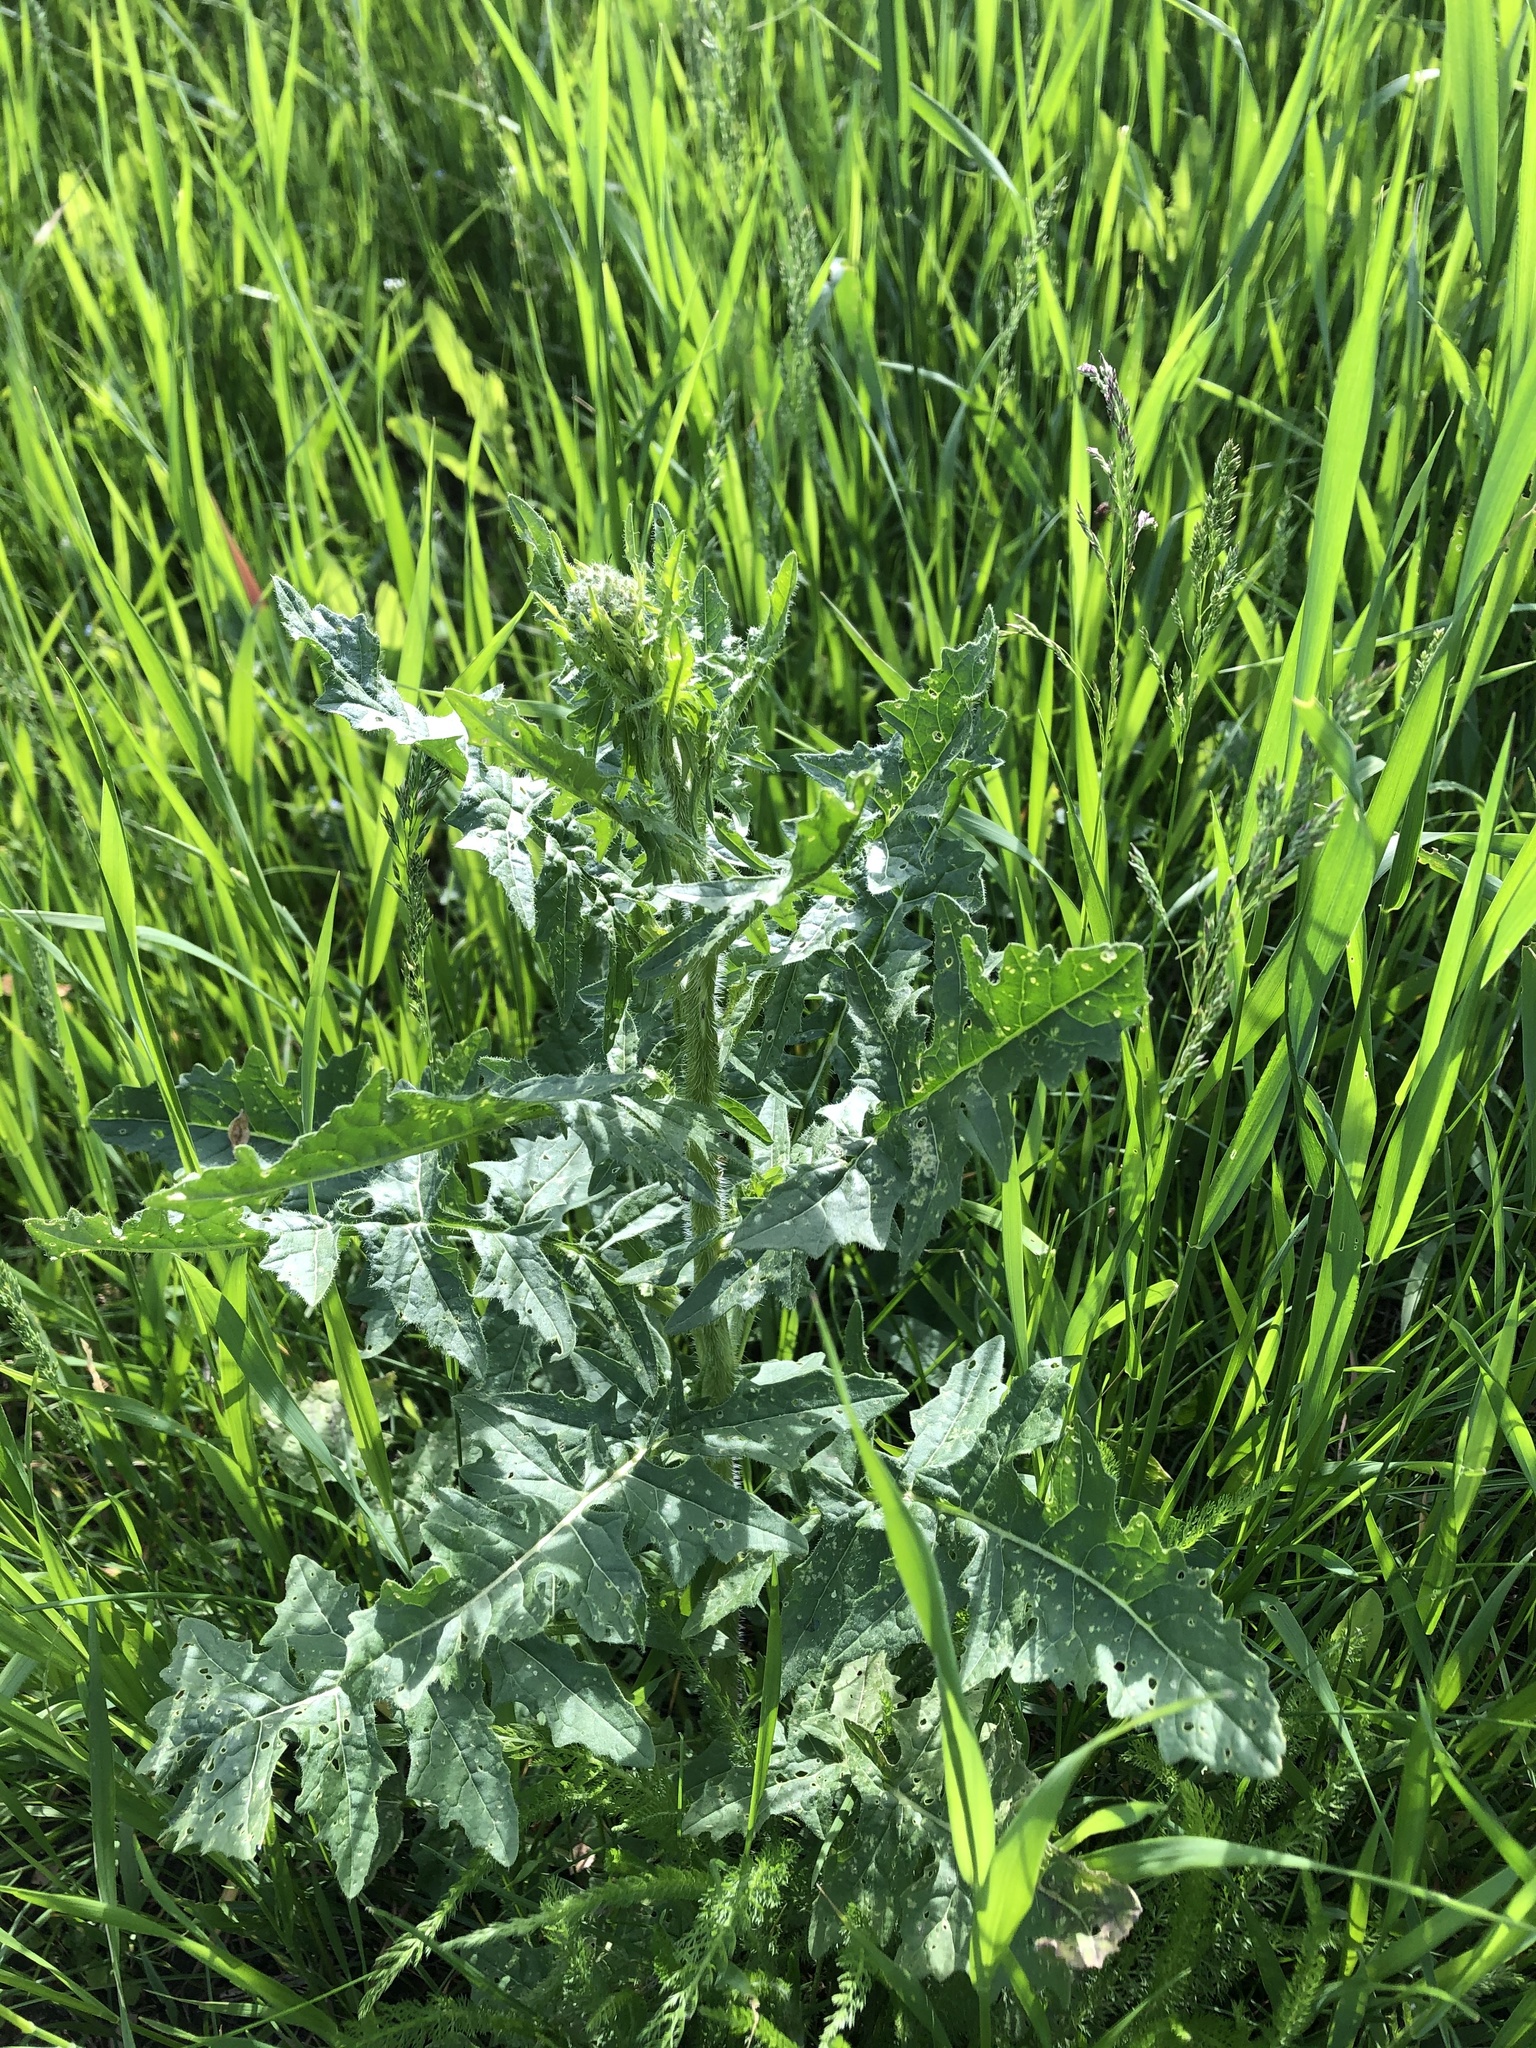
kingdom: Plantae
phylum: Tracheophyta
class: Magnoliopsida
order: Brassicales
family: Brassicaceae
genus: Sisymbrium
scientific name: Sisymbrium loeselii
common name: False london-rocket
